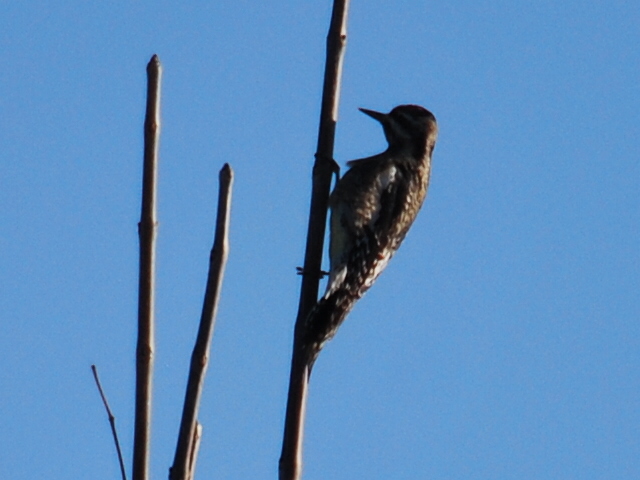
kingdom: Animalia
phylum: Chordata
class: Aves
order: Piciformes
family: Picidae
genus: Sphyrapicus
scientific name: Sphyrapicus varius
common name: Yellow-bellied sapsucker
